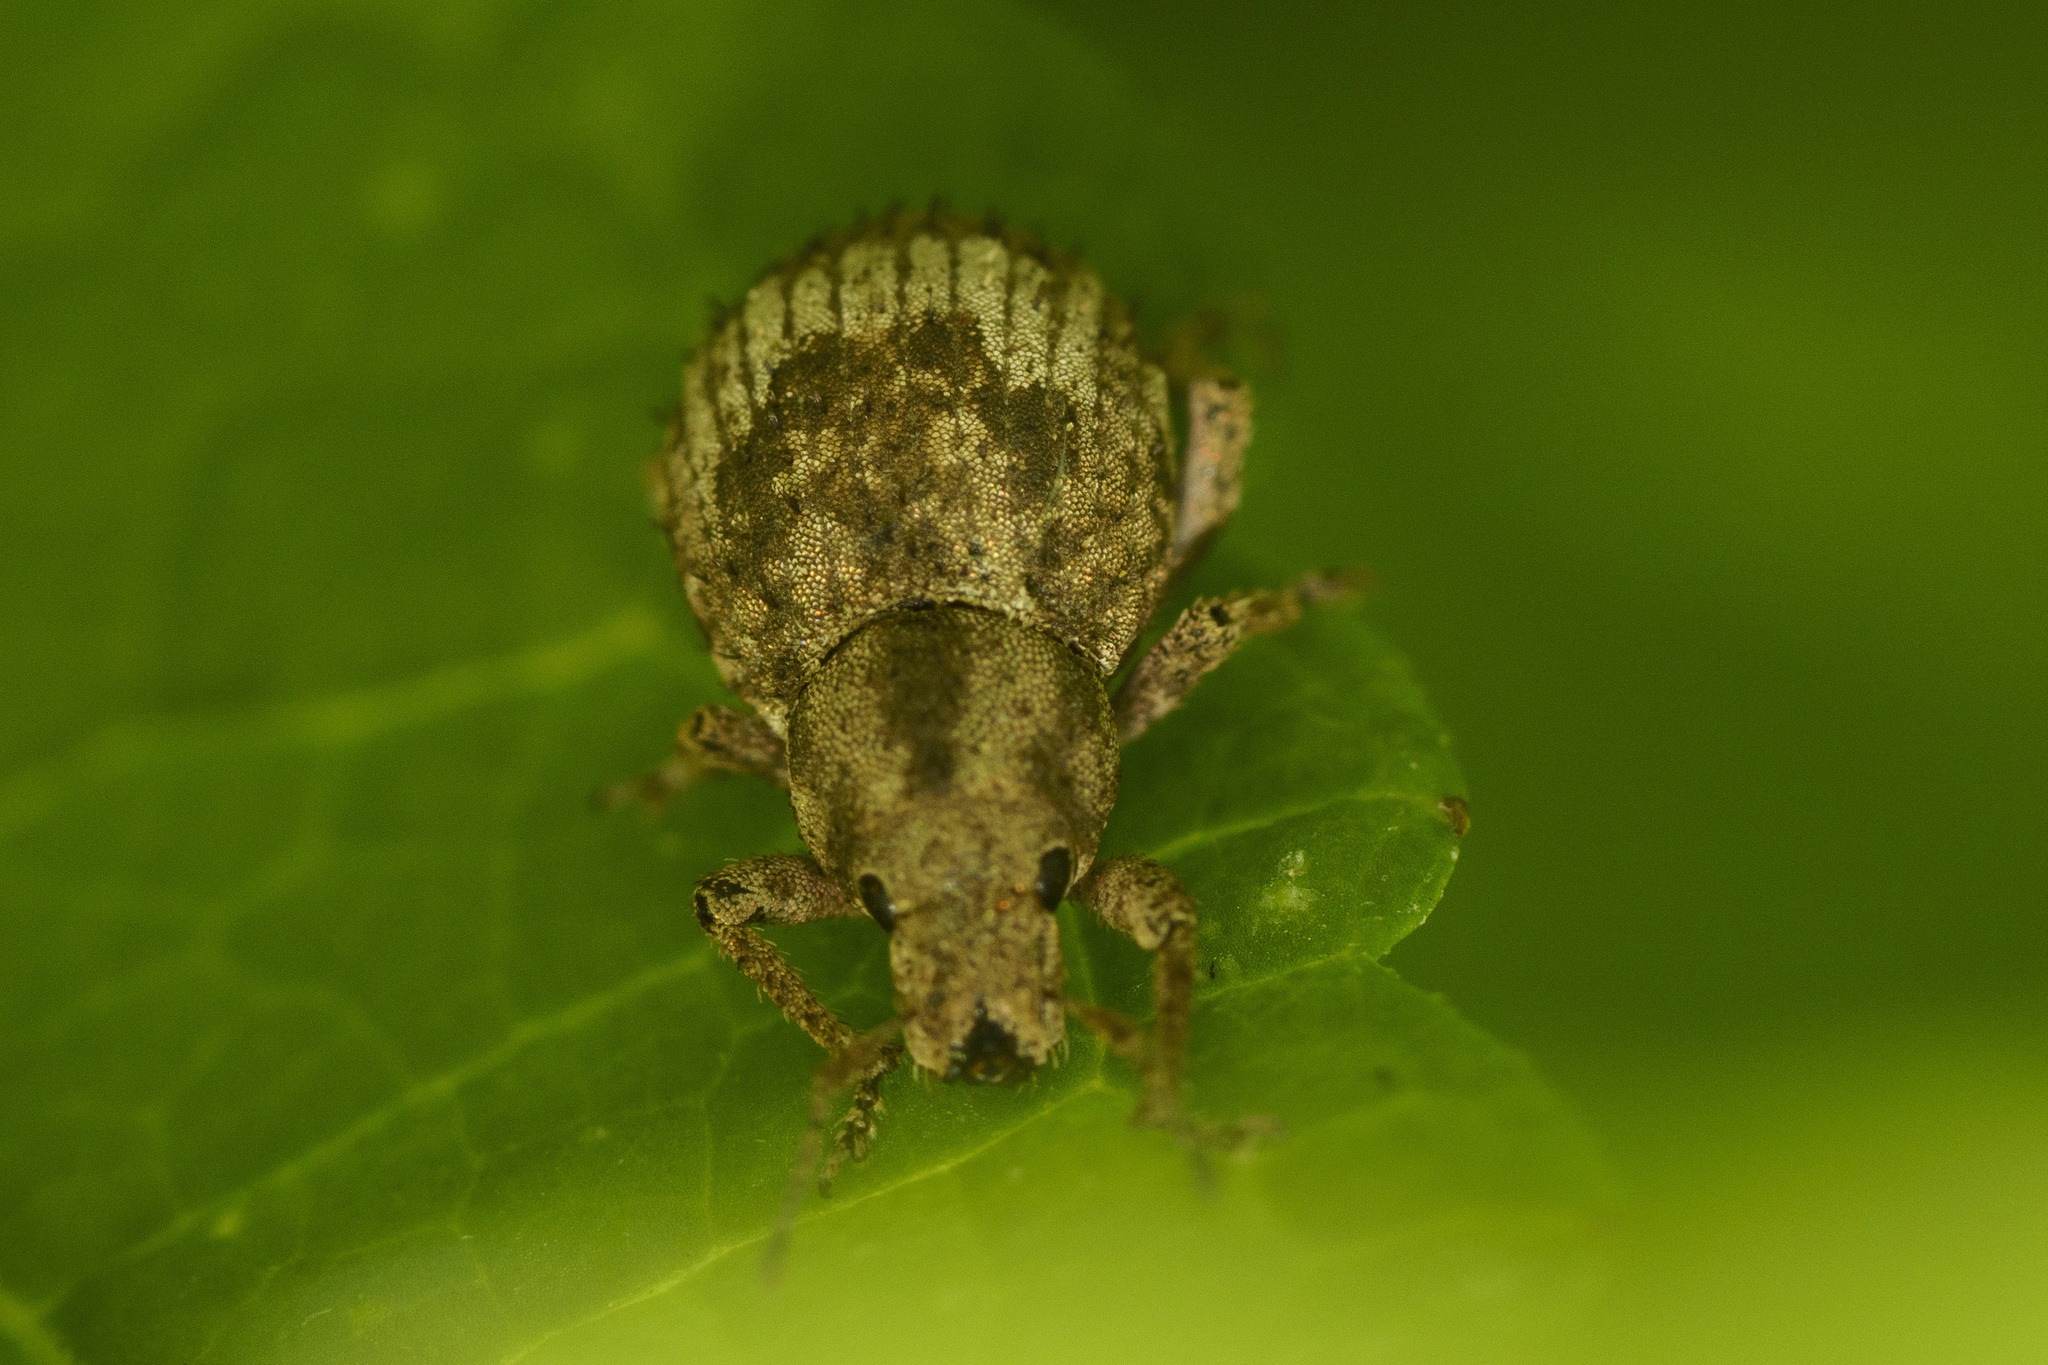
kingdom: Animalia
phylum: Arthropoda
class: Insecta
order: Coleoptera
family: Curculionidae
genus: Pseudocneorhinus
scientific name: Pseudocneorhinus obesus
